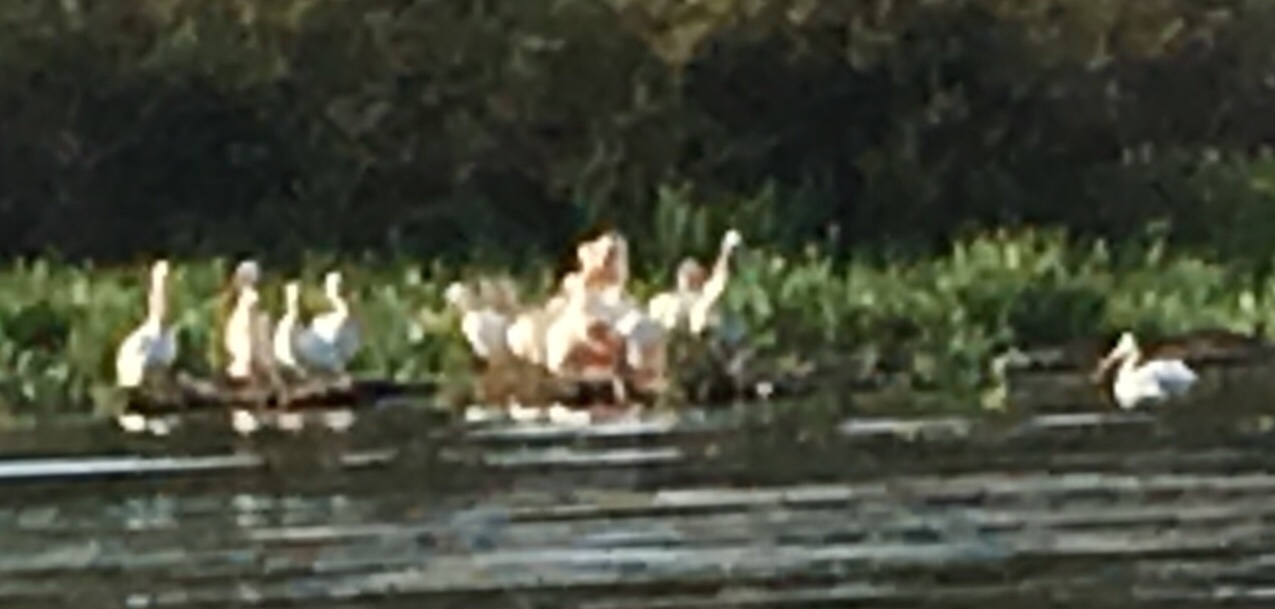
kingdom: Animalia
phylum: Chordata
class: Aves
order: Pelecaniformes
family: Pelecanidae
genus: Pelecanus
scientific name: Pelecanus erythrorhynchos
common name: American white pelican
